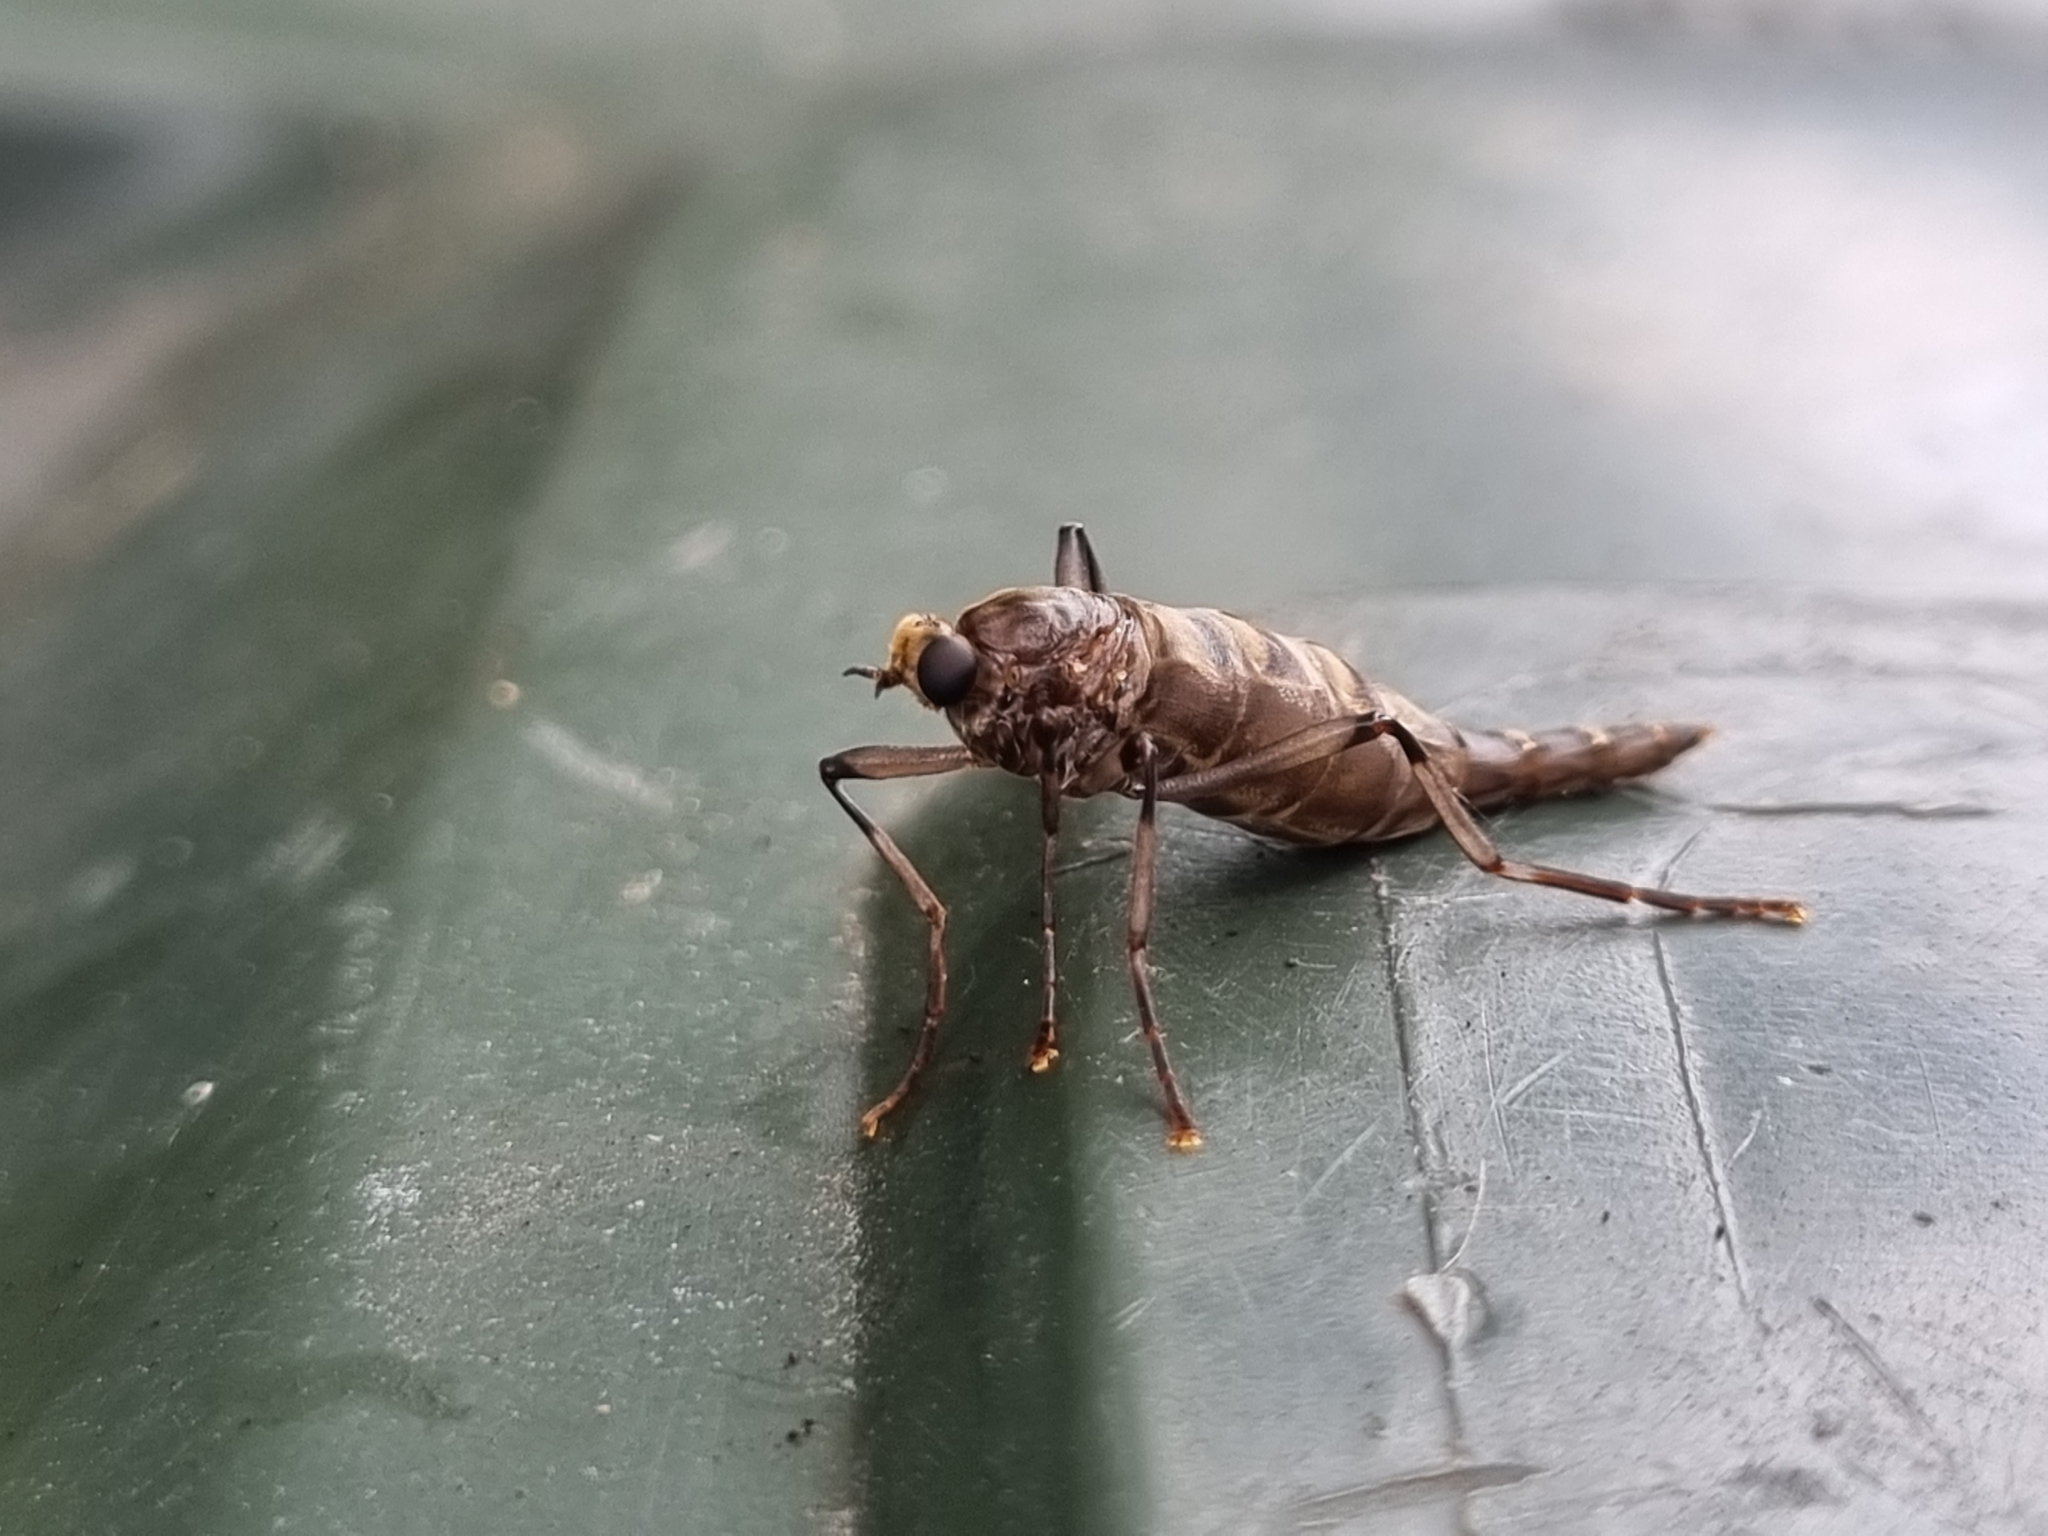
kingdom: Animalia
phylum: Arthropoda
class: Insecta
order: Diptera
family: Stratiomyidae
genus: Boreoides
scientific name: Boreoides subulatus
